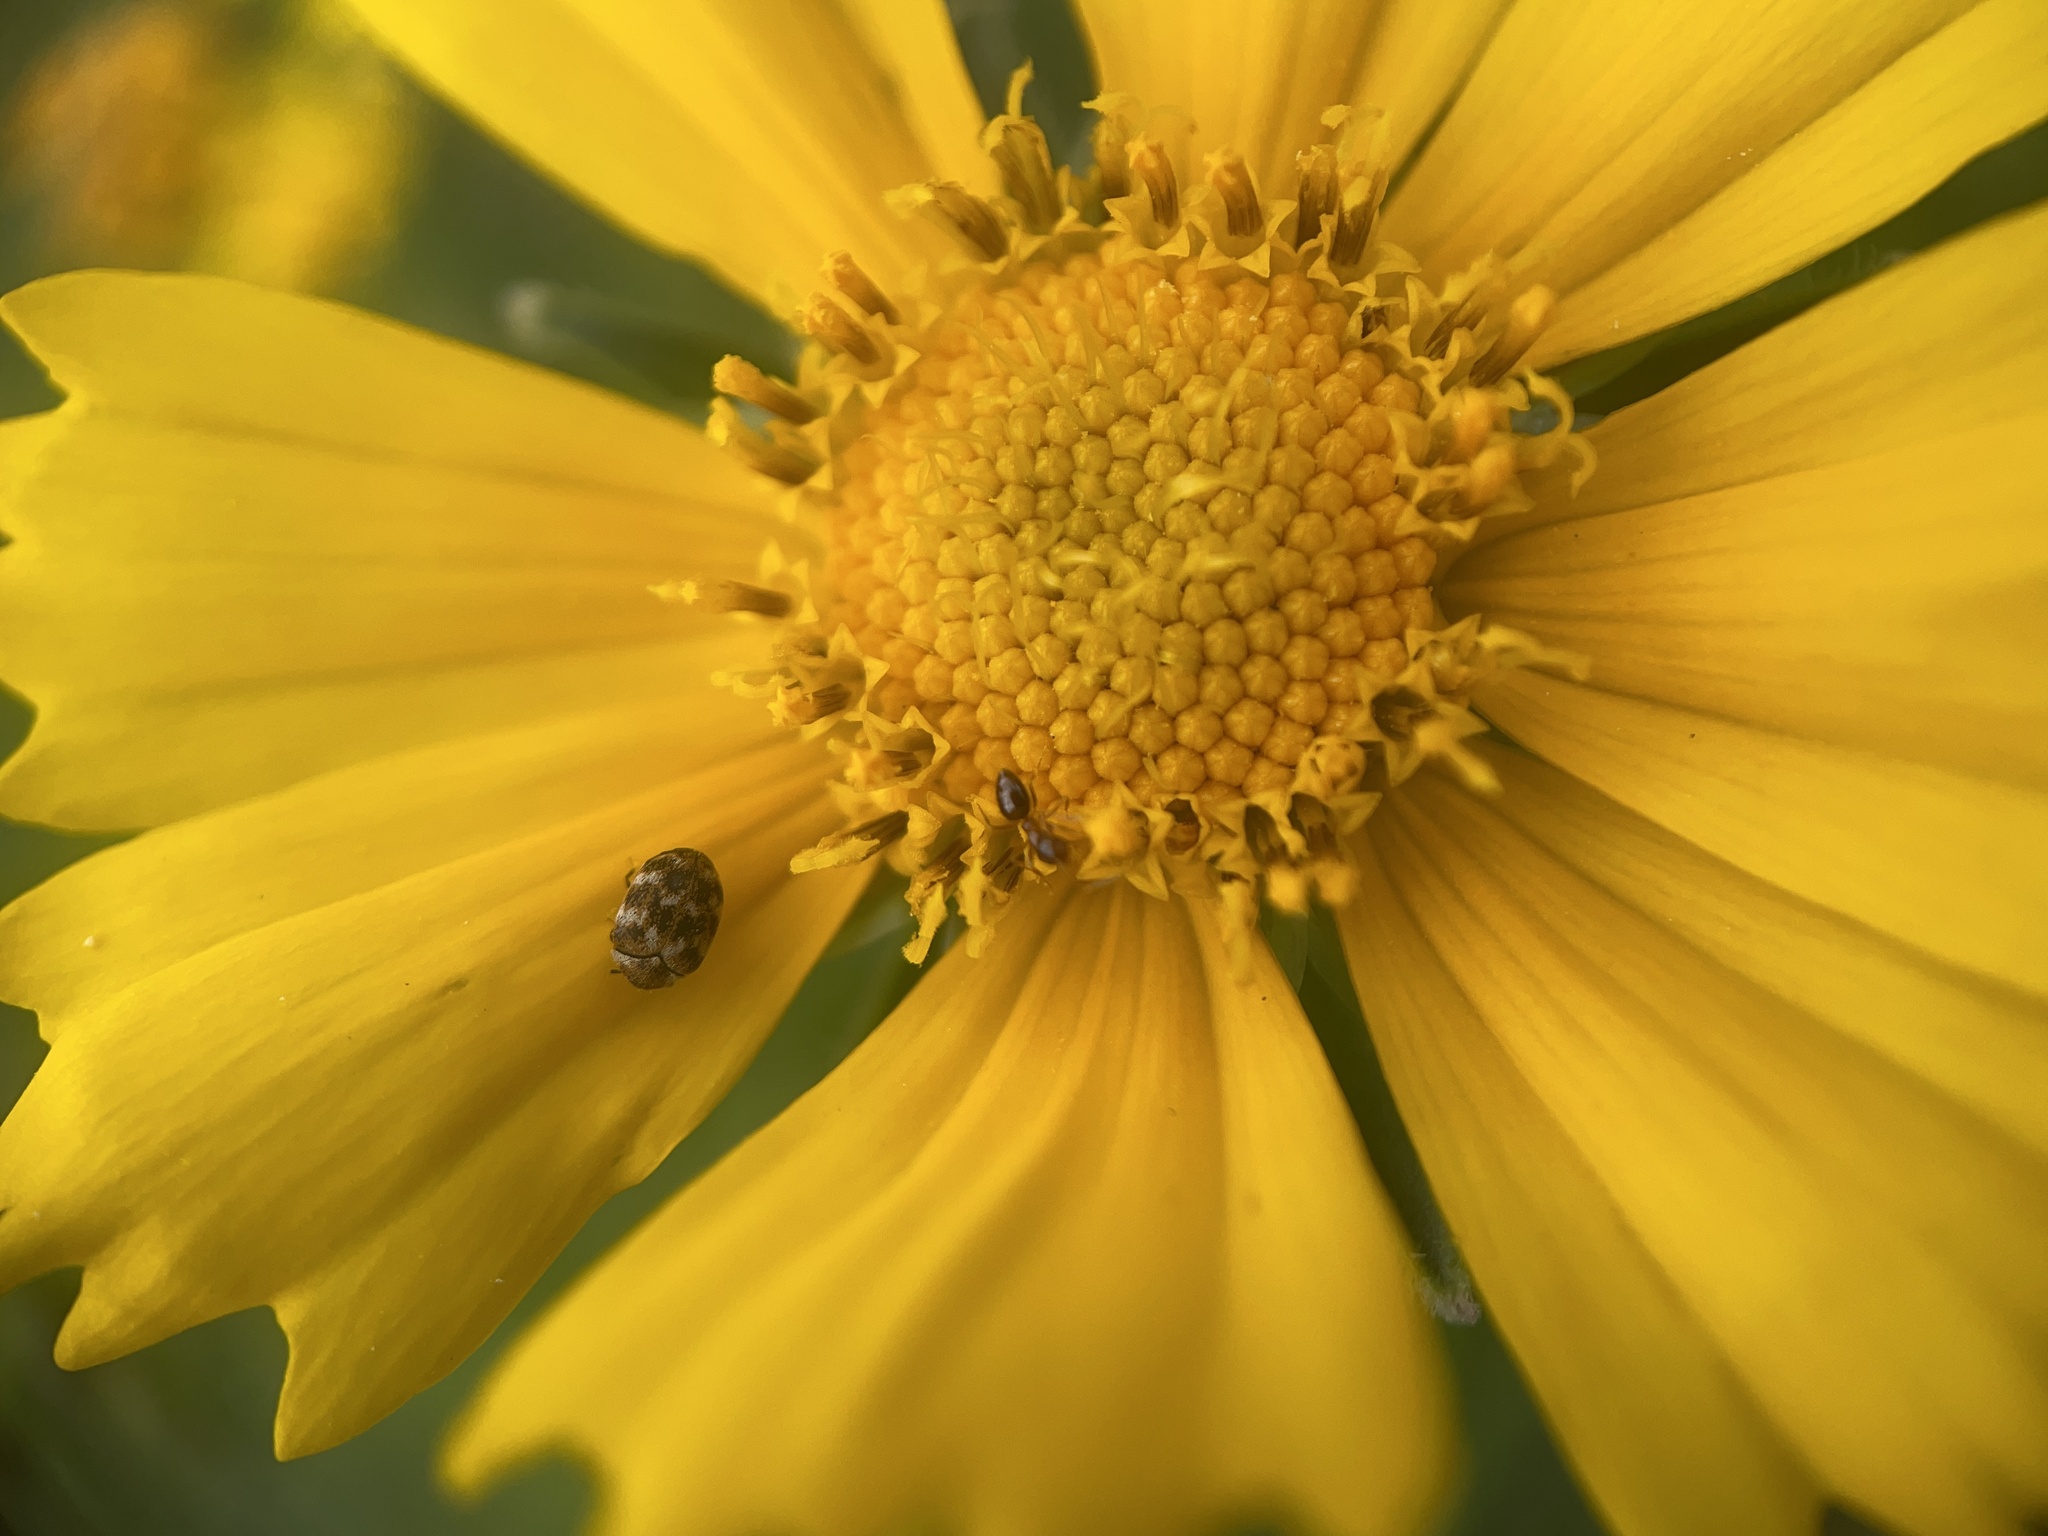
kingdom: Animalia
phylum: Arthropoda
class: Insecta
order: Coleoptera
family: Dermestidae
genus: Anthrenus
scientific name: Anthrenus verbasci
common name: Varied carpet beetle
